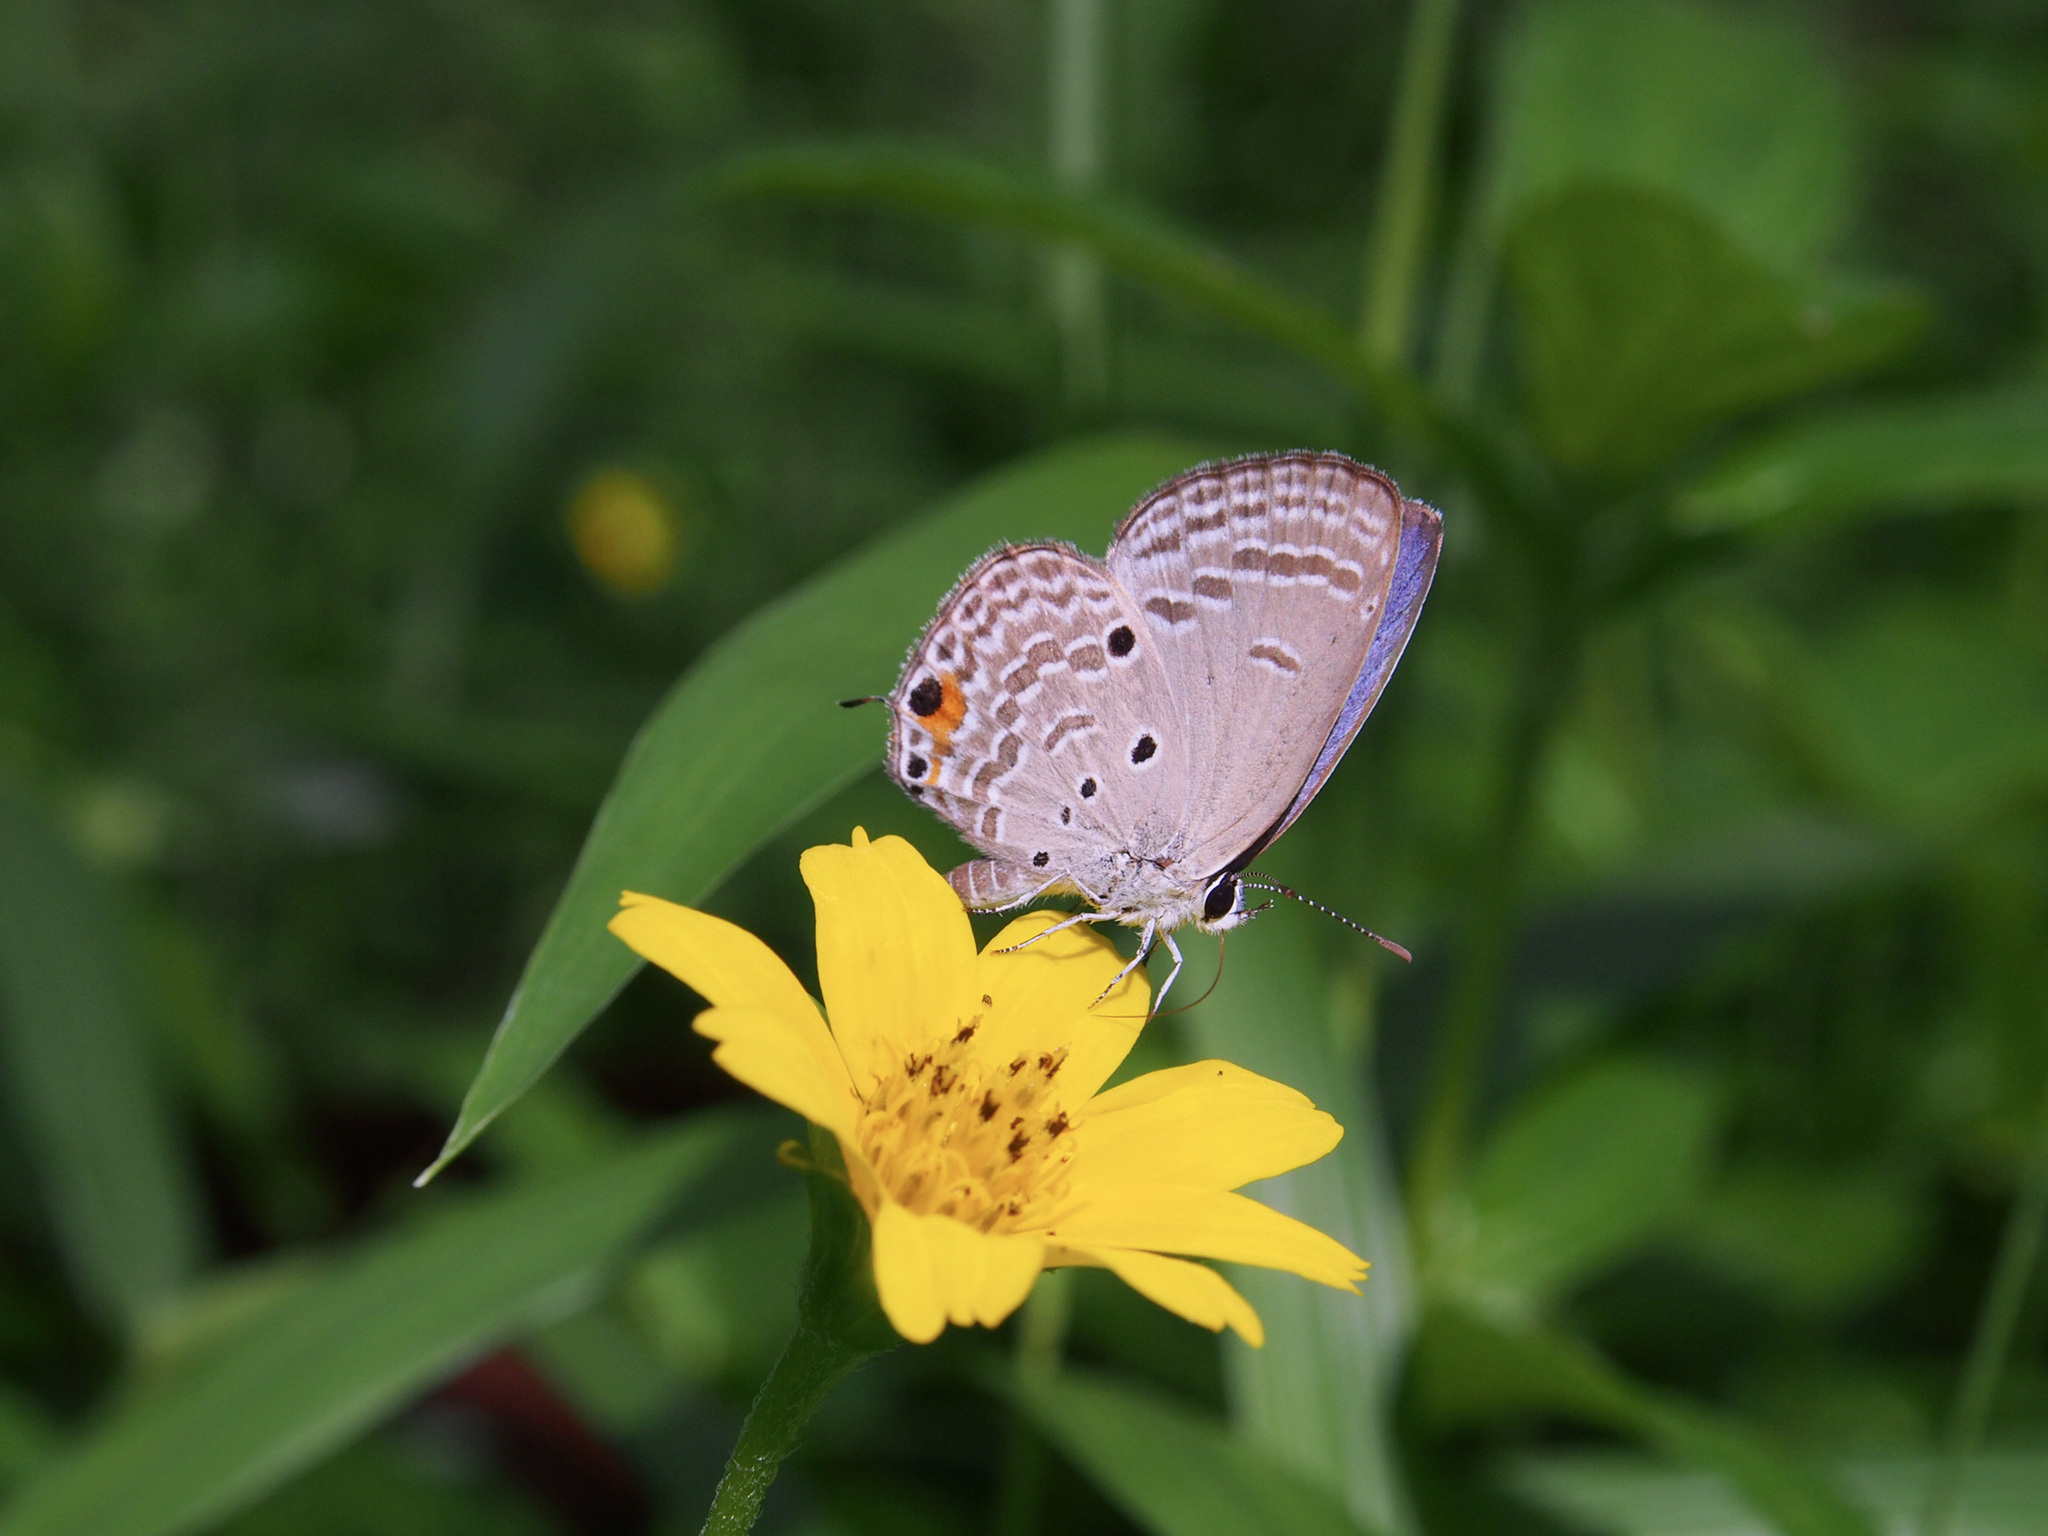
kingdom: Animalia
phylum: Arthropoda
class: Insecta
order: Lepidoptera
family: Lycaenidae
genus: Luthrodes
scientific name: Luthrodes pandava
